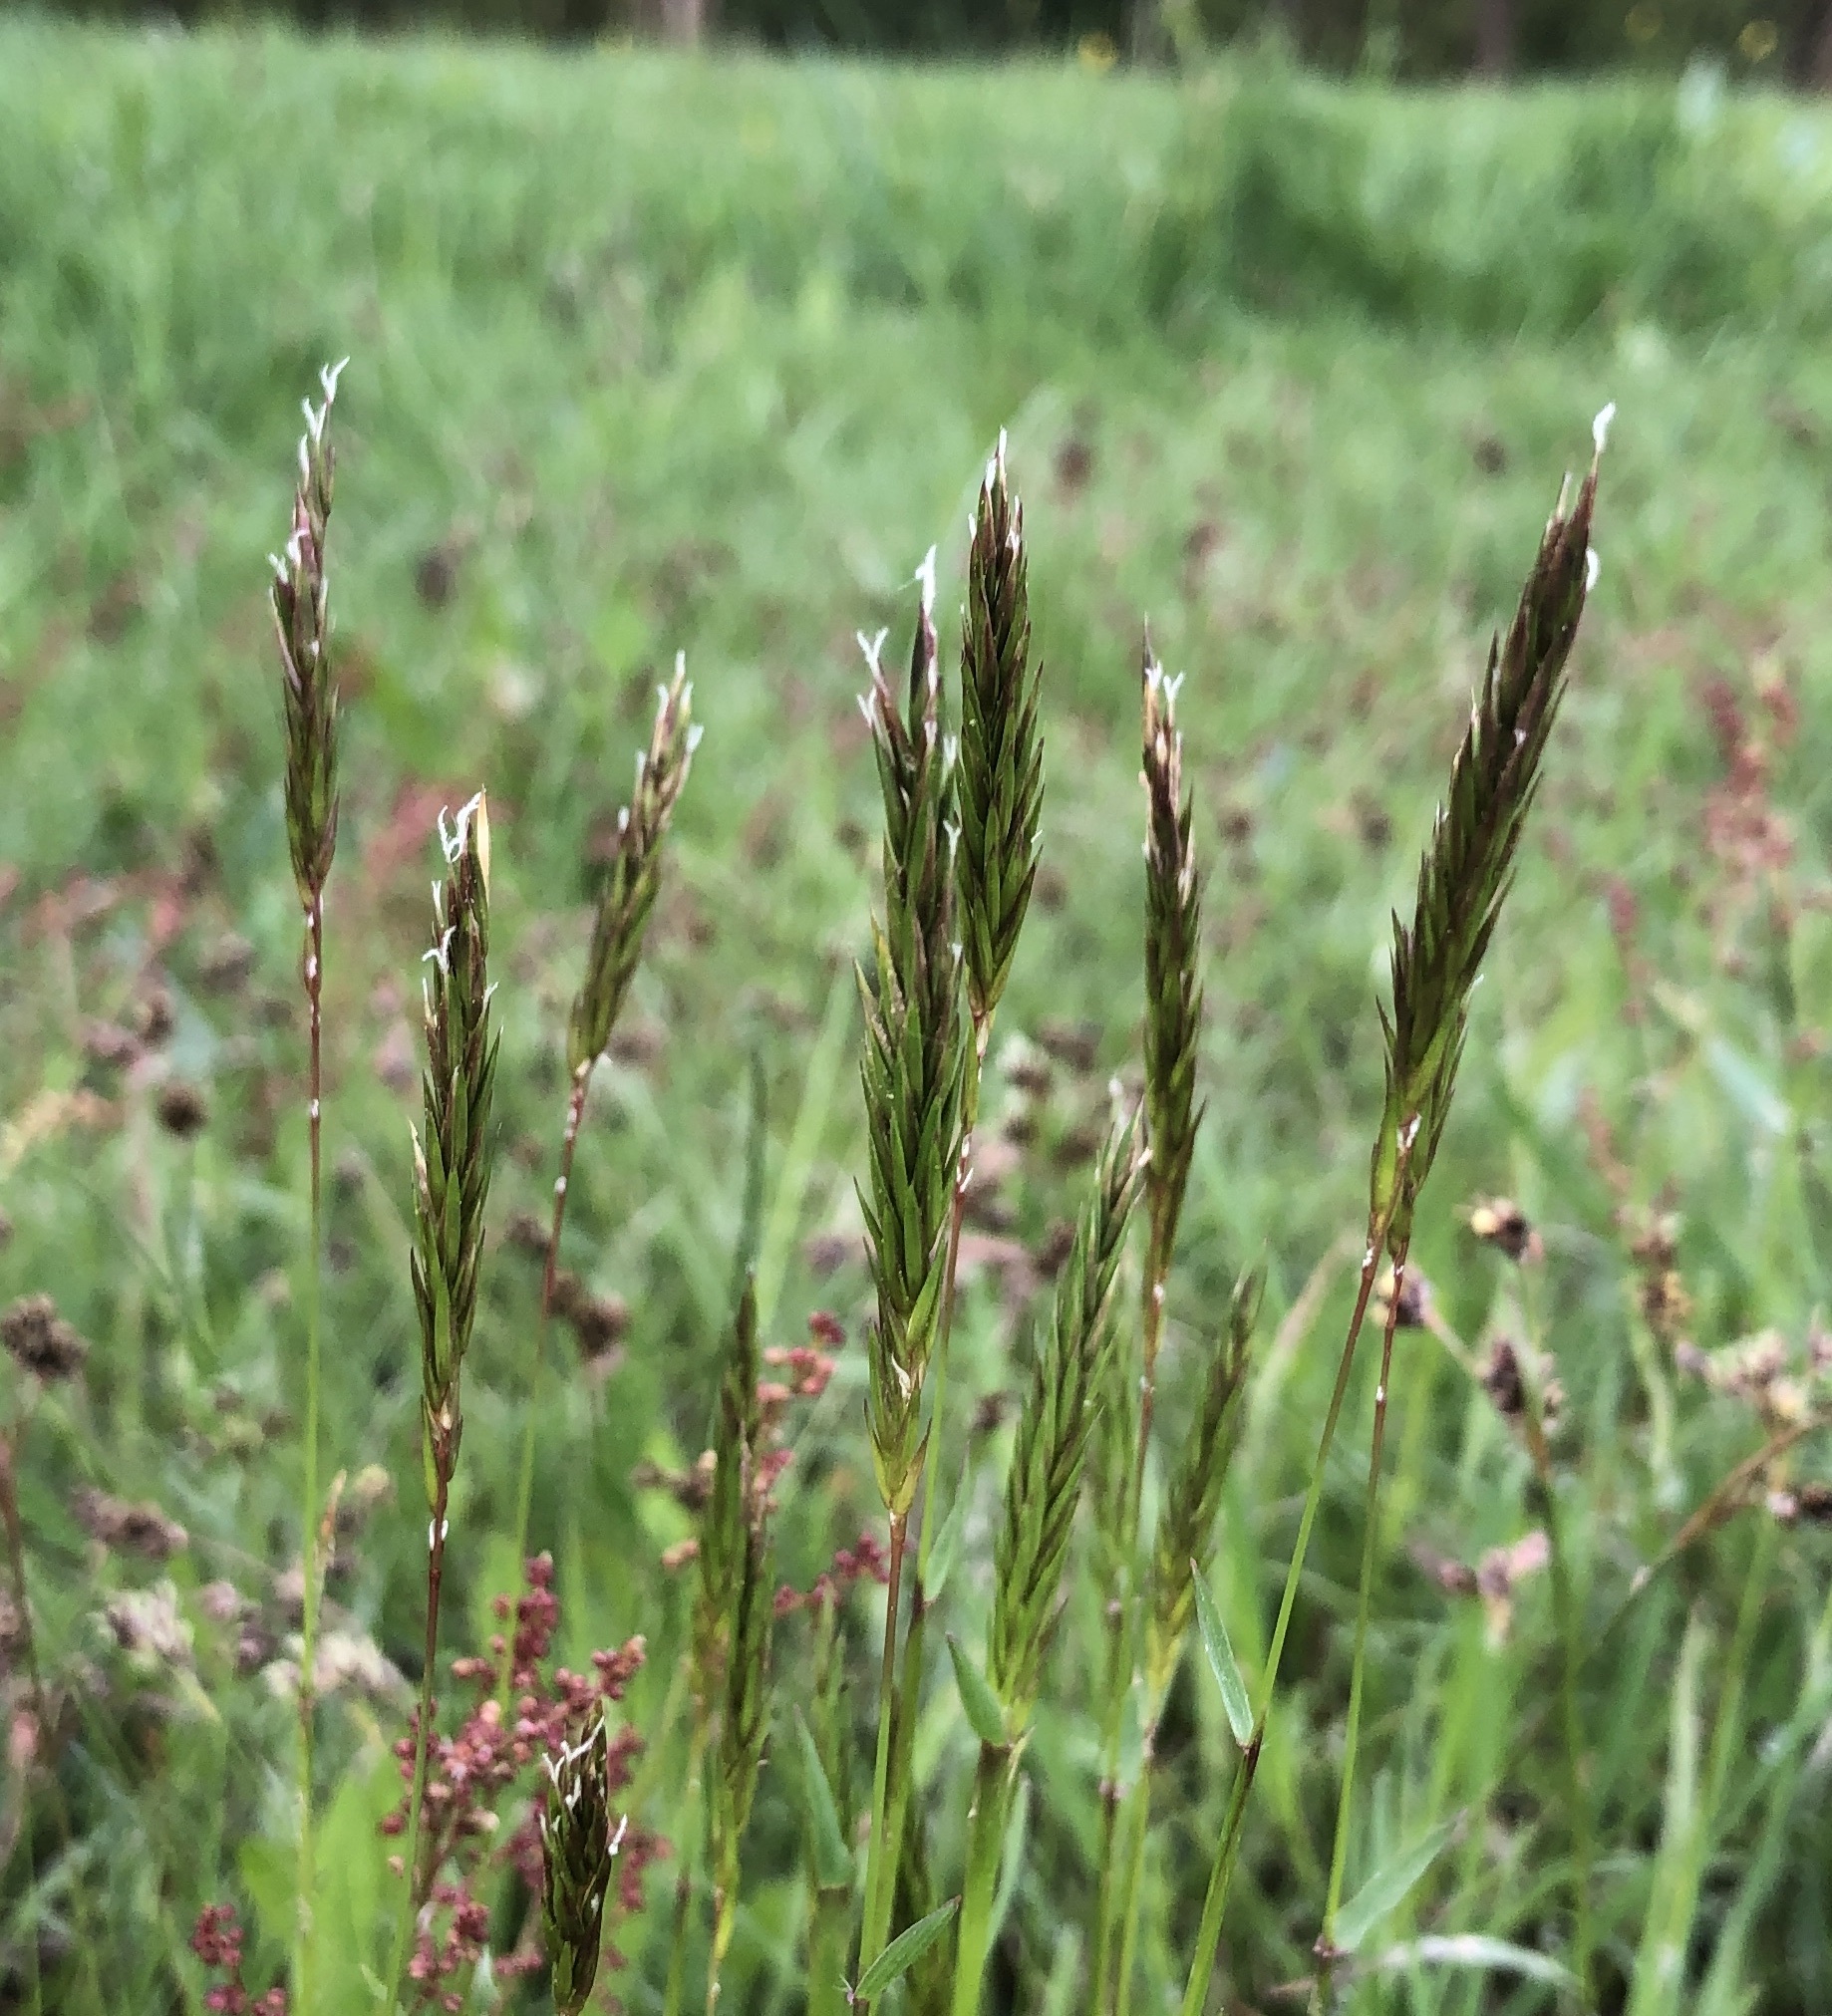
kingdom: Plantae
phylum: Tracheophyta
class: Liliopsida
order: Poales
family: Poaceae
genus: Anthoxanthum
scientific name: Anthoxanthum odoratum
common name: Sweet vernalgrass
